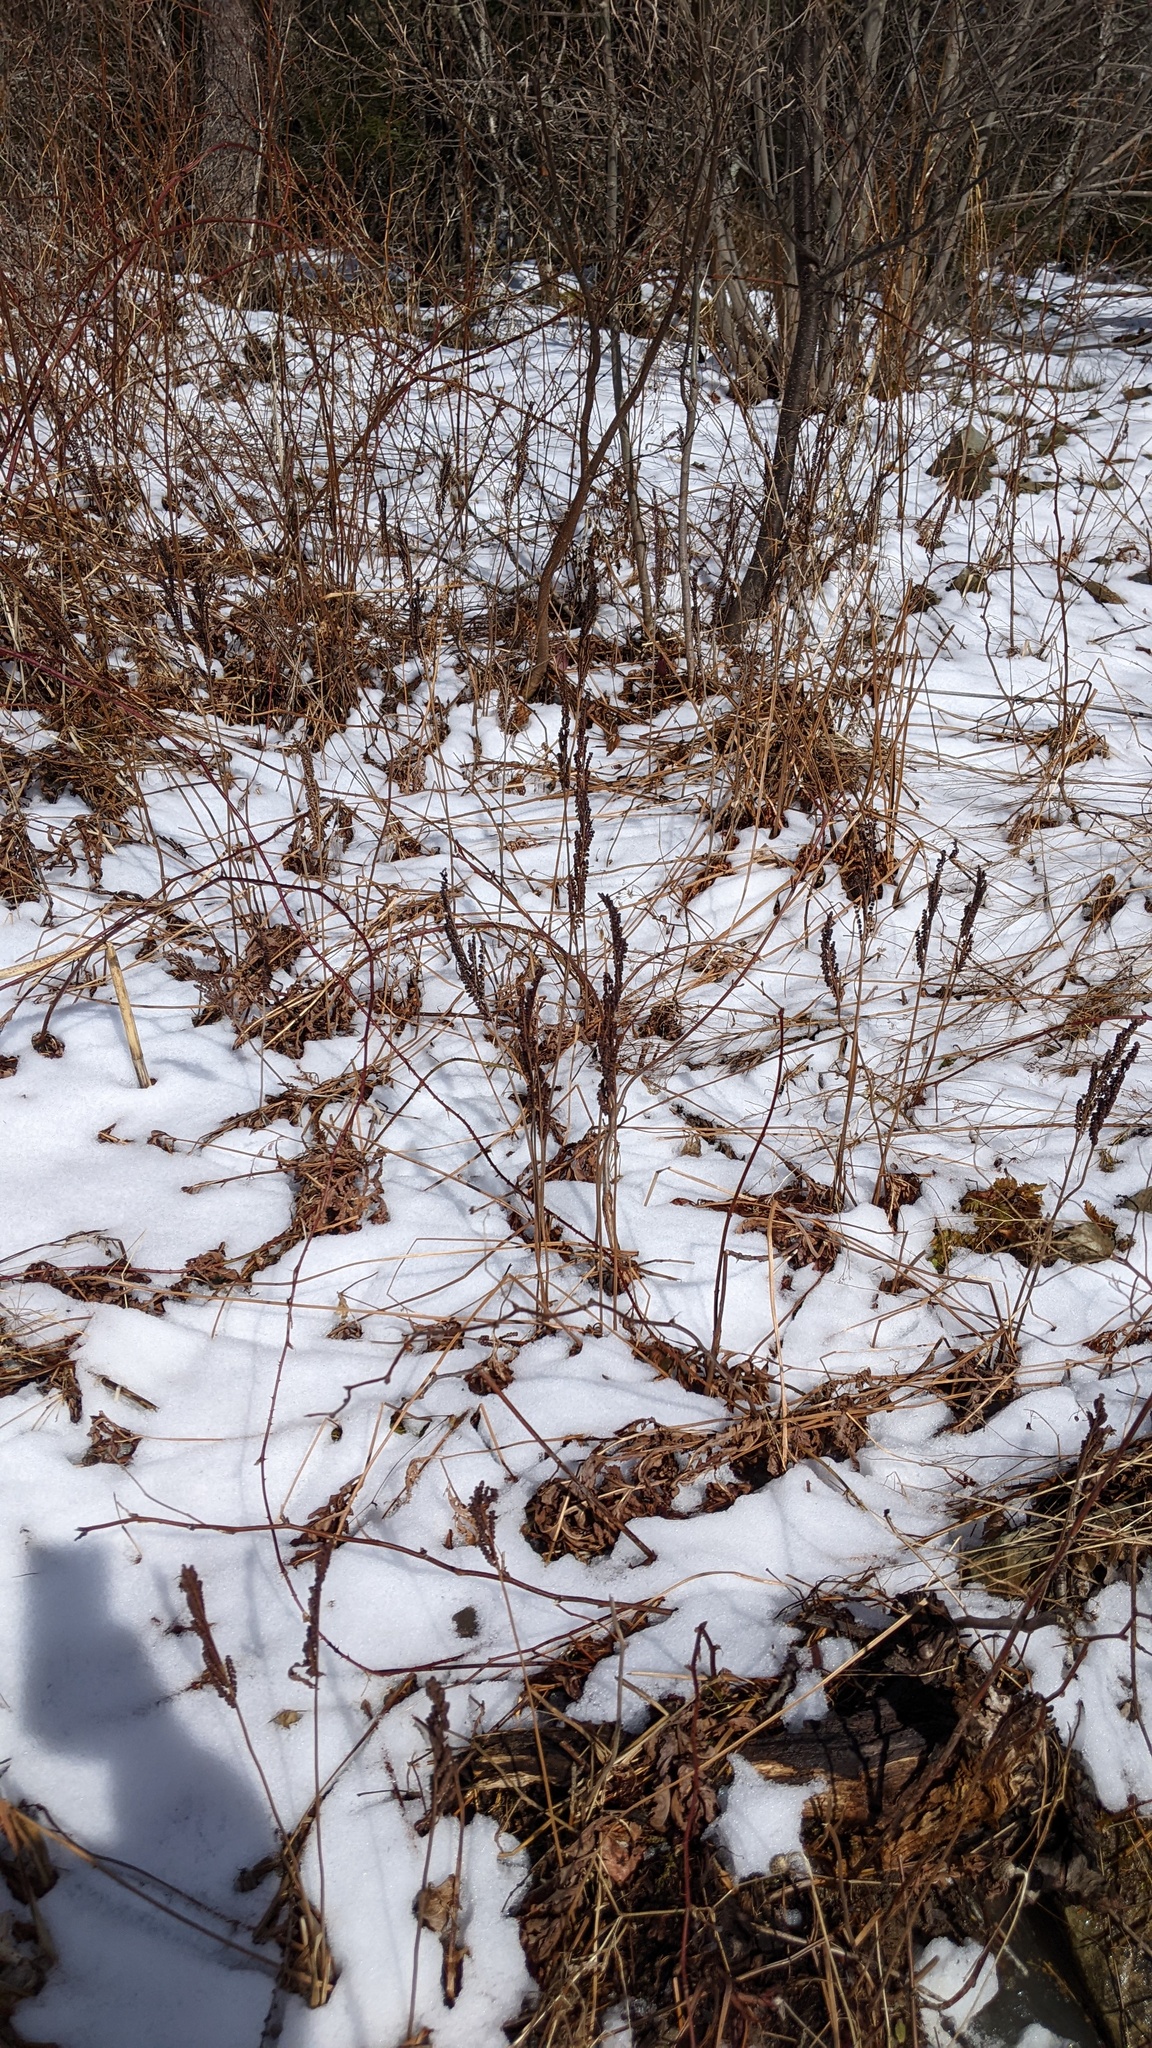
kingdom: Plantae
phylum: Tracheophyta
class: Polypodiopsida
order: Polypodiales
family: Onocleaceae
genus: Onoclea
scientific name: Onoclea sensibilis
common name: Sensitive fern
